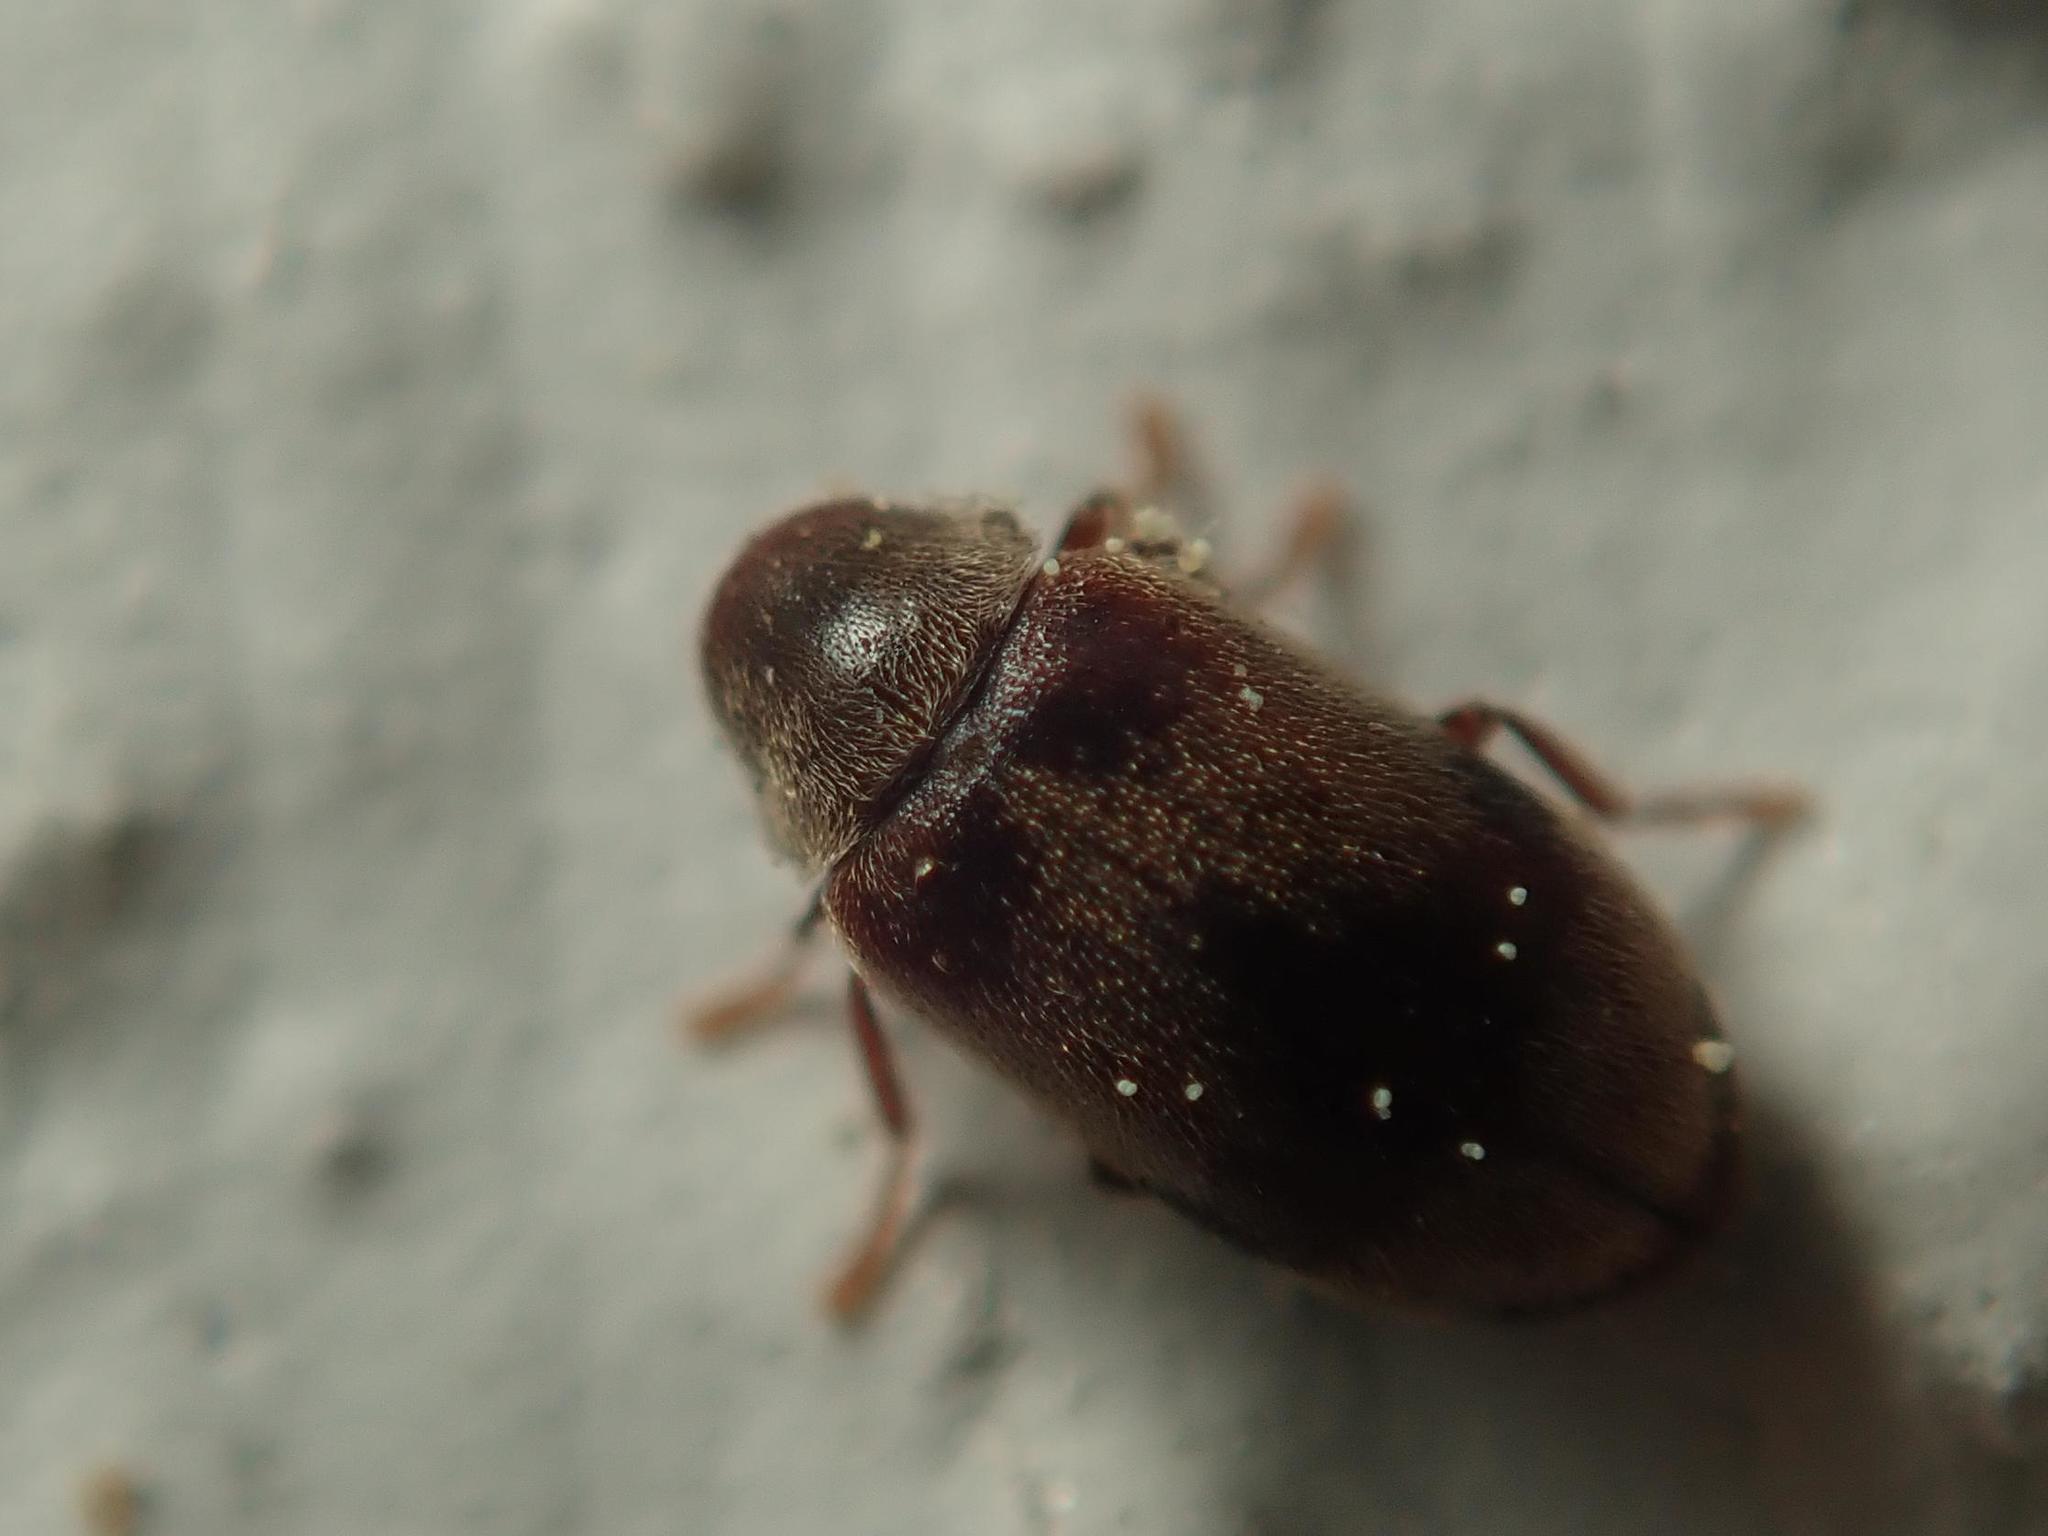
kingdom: Animalia
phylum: Arthropoda
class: Insecta
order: Coleoptera
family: Ptinidae
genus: Ochina
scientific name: Ochina ptinoides
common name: Ivy boring beetle
